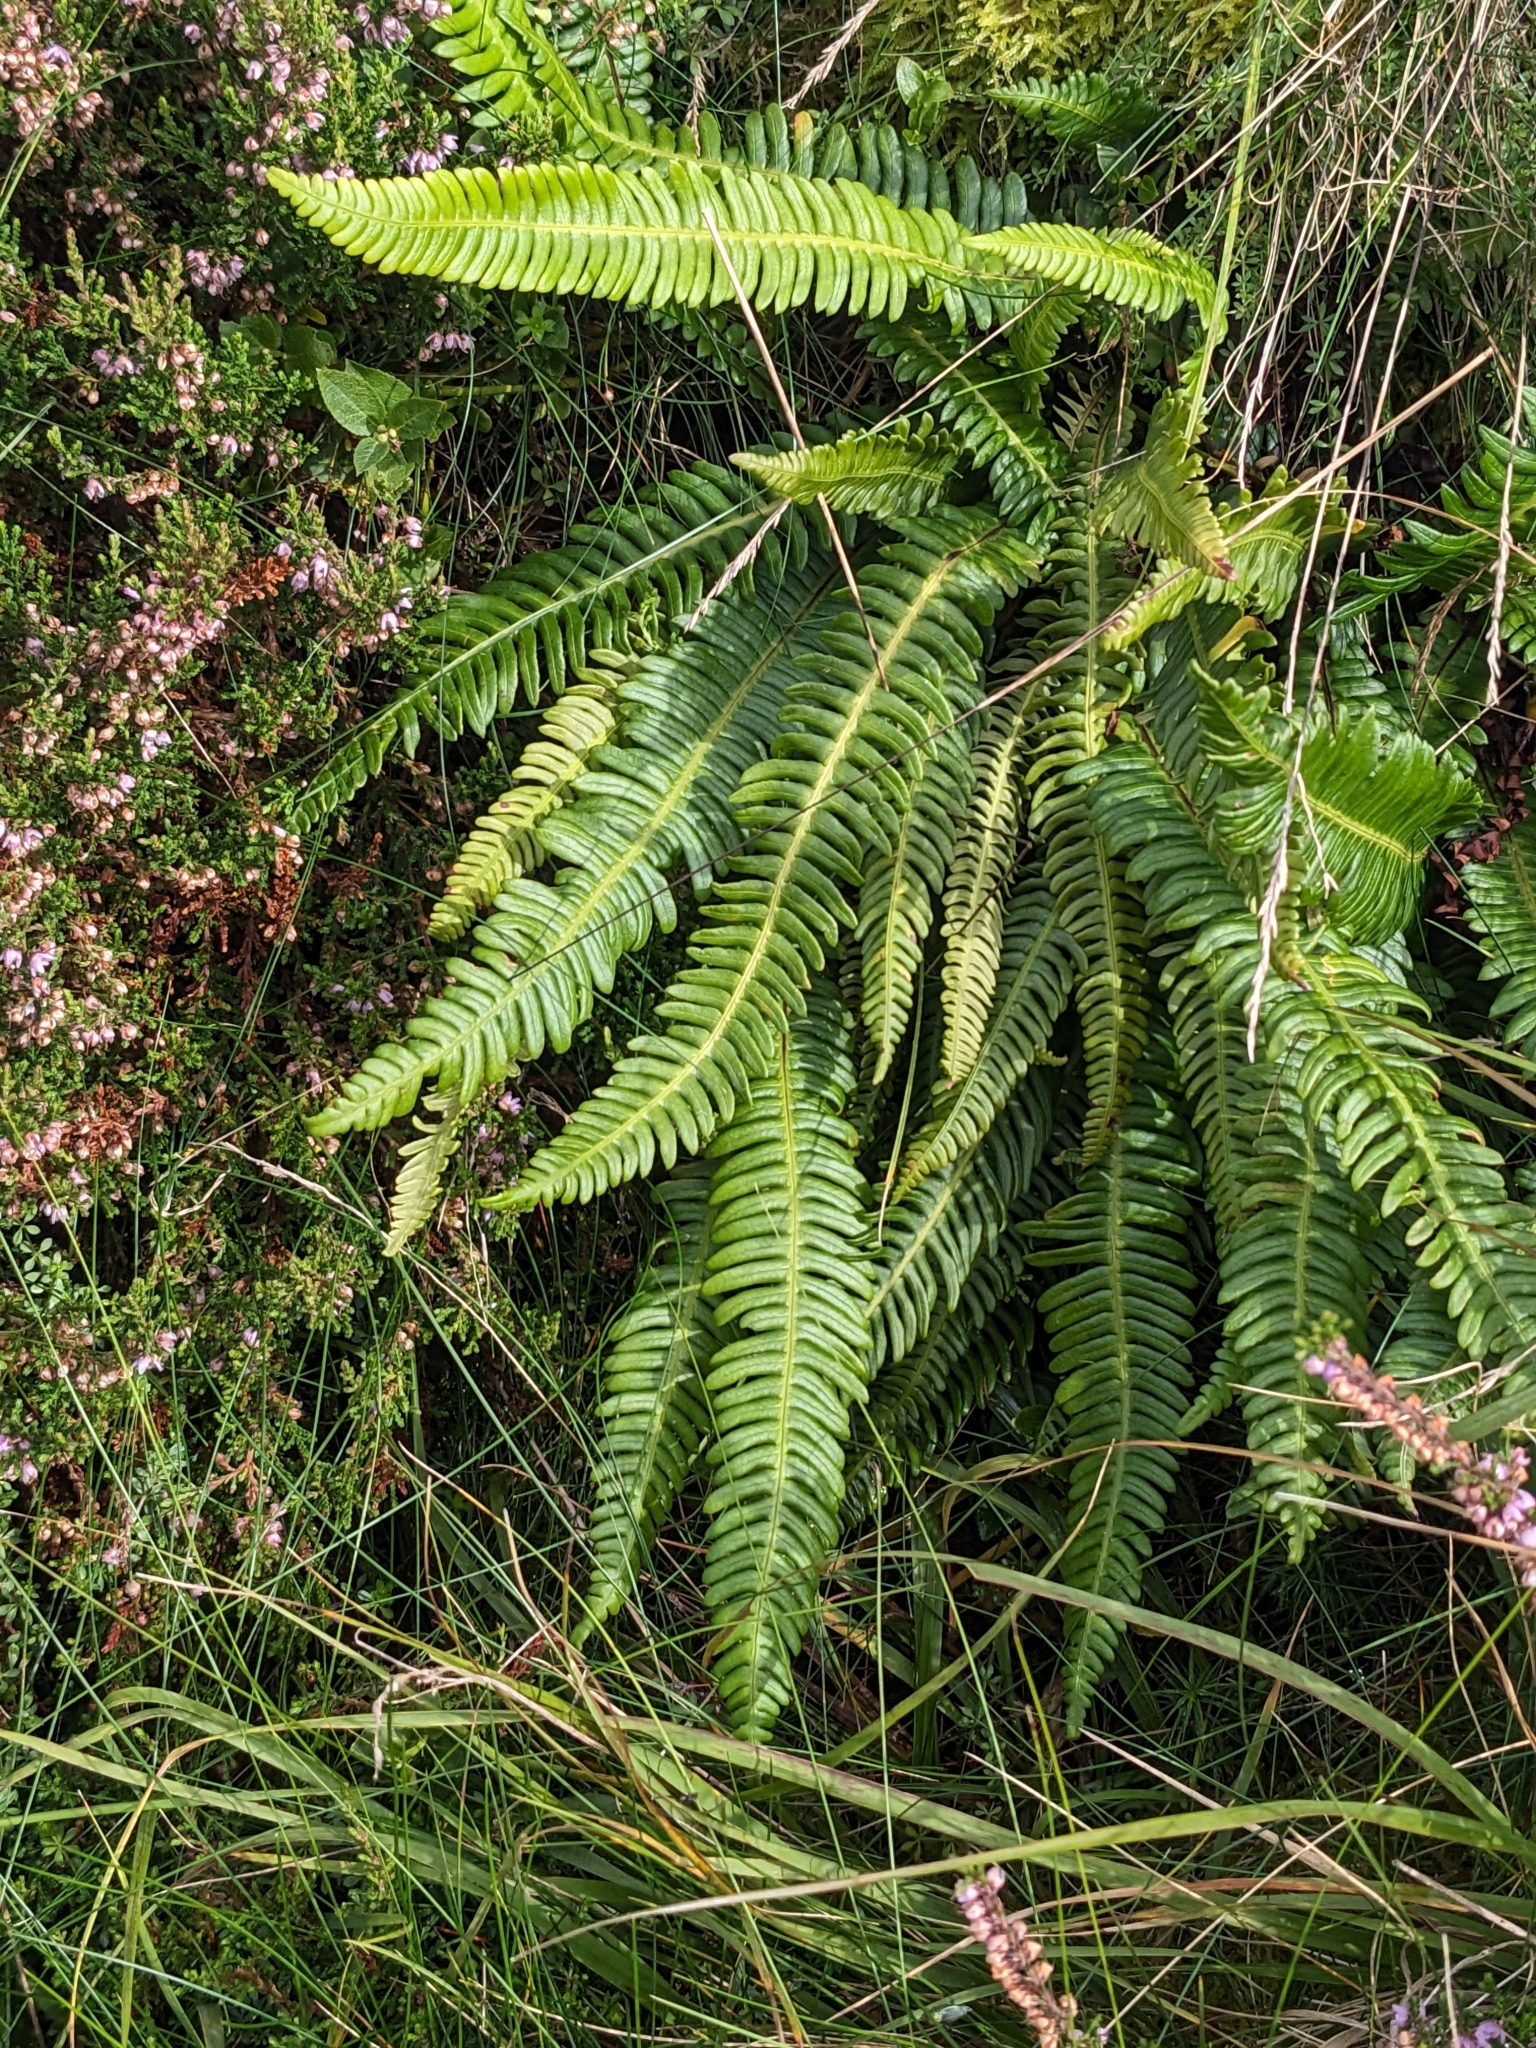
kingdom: Plantae
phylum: Tracheophyta
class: Polypodiopsida
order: Polypodiales
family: Blechnaceae
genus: Struthiopteris
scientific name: Struthiopteris spicant
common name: Deer fern
